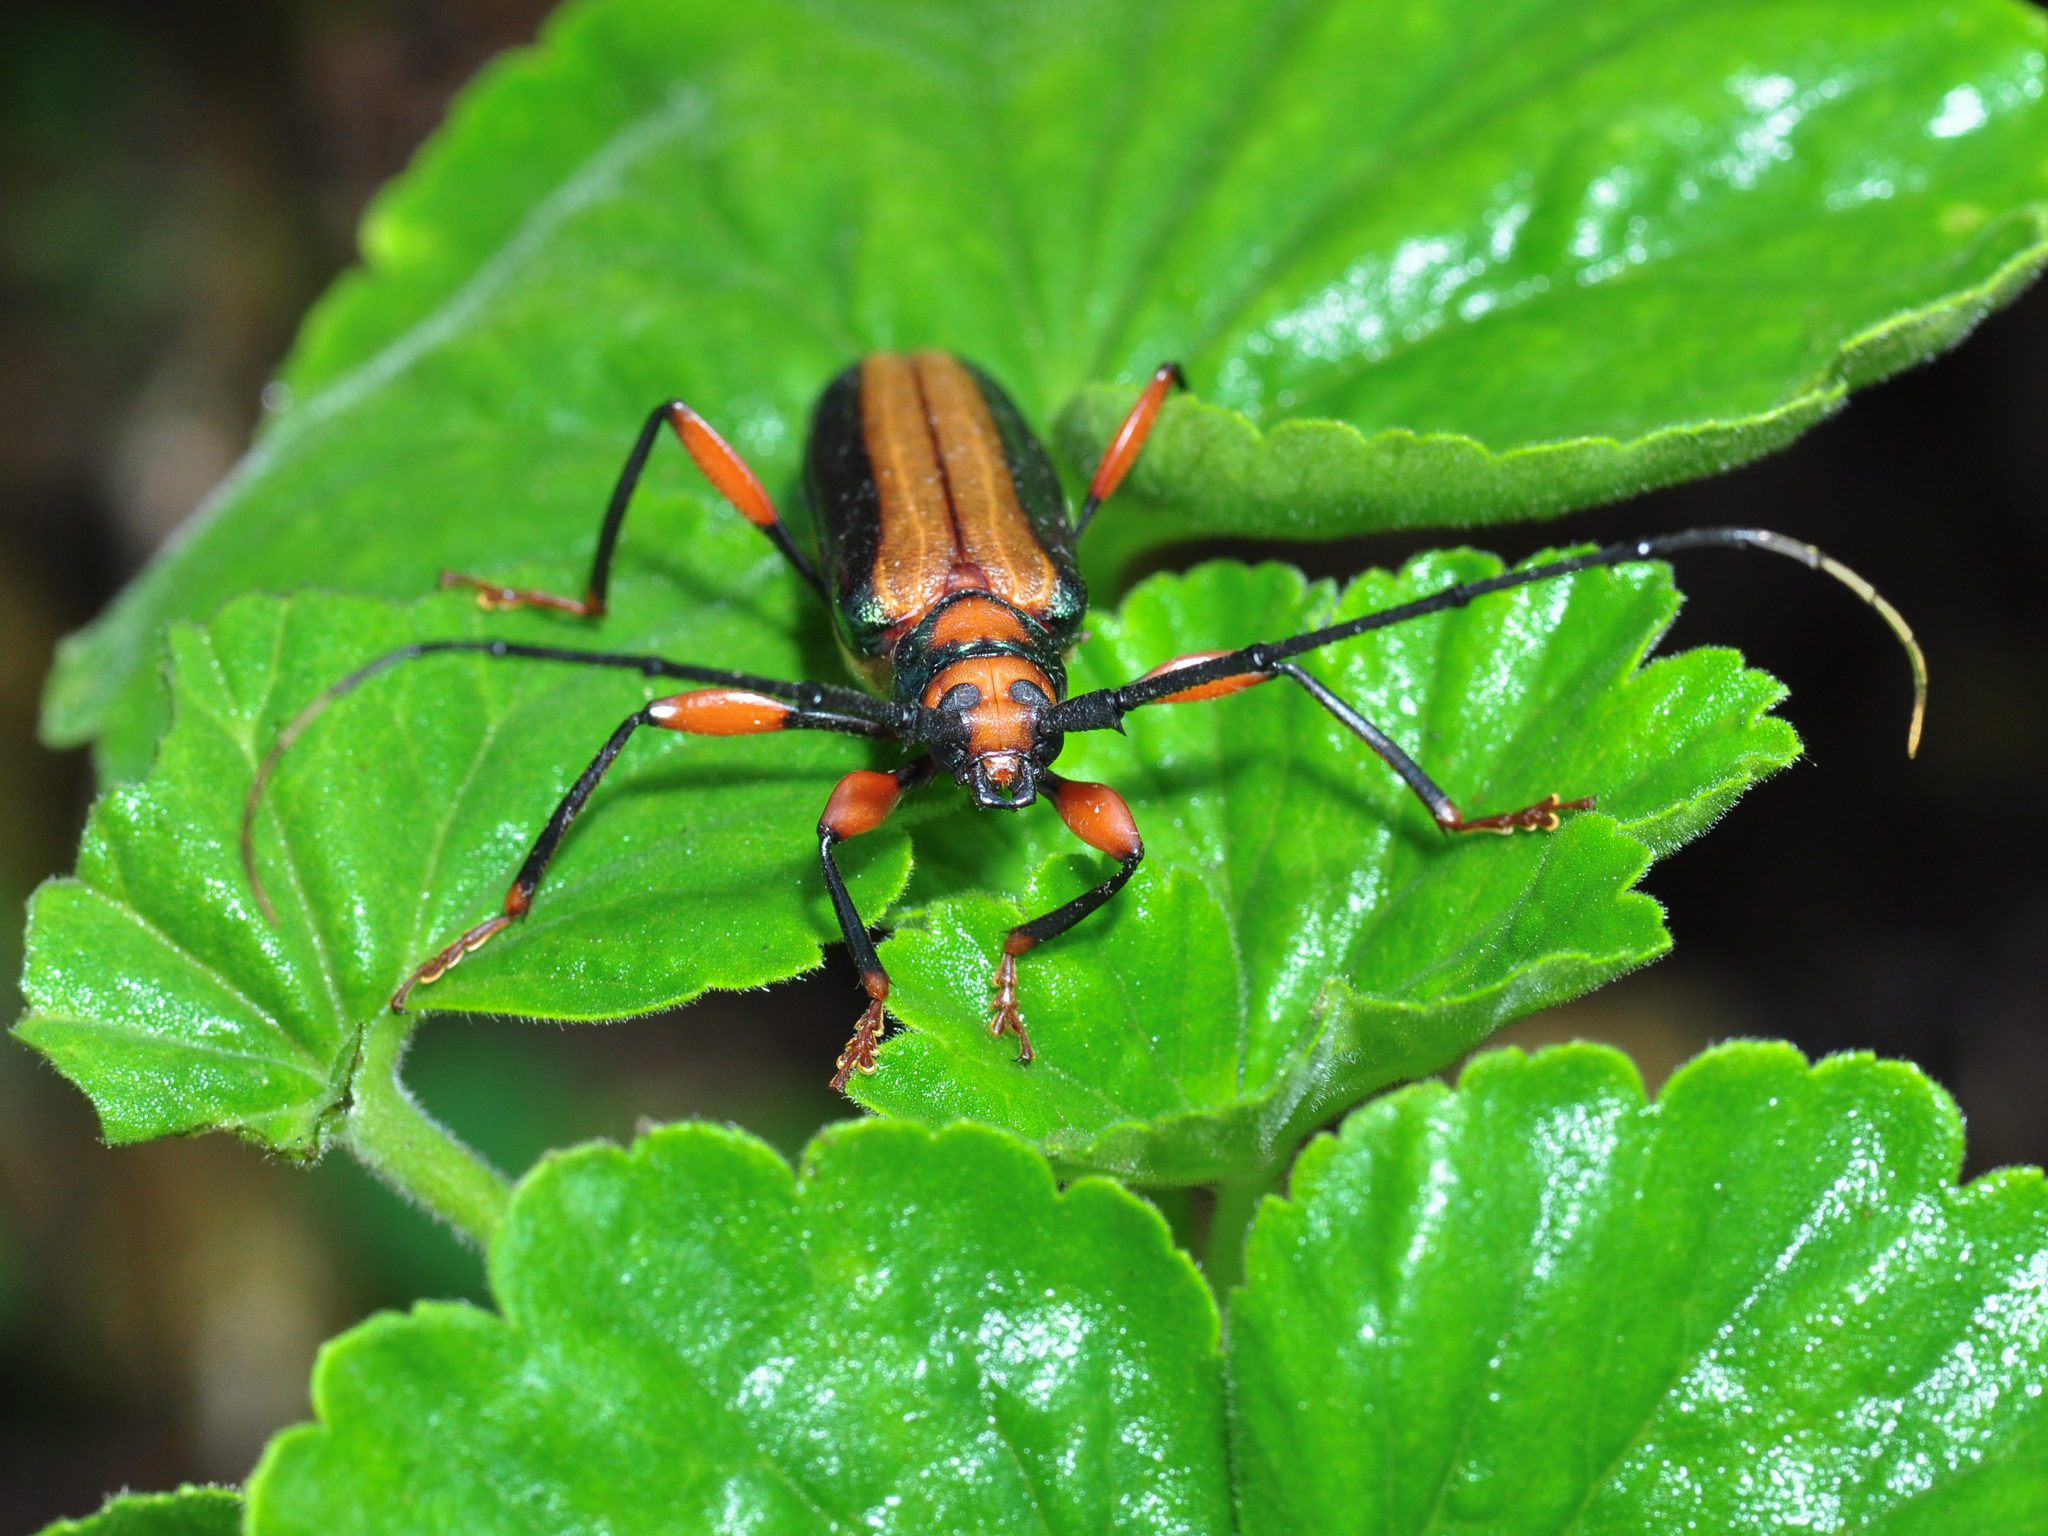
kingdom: Animalia
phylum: Arthropoda
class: Insecta
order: Coleoptera
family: Cerambycidae
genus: Xystrocera
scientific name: Xystrocera festiva
